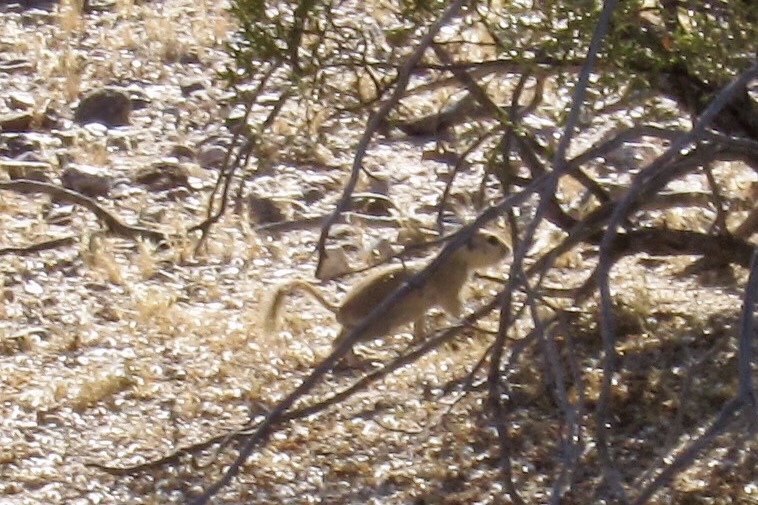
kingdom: Animalia
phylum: Chordata
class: Mammalia
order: Rodentia
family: Sciuridae
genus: Xerospermophilus
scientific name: Xerospermophilus tereticaudus
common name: Round-tailed ground squirrel
